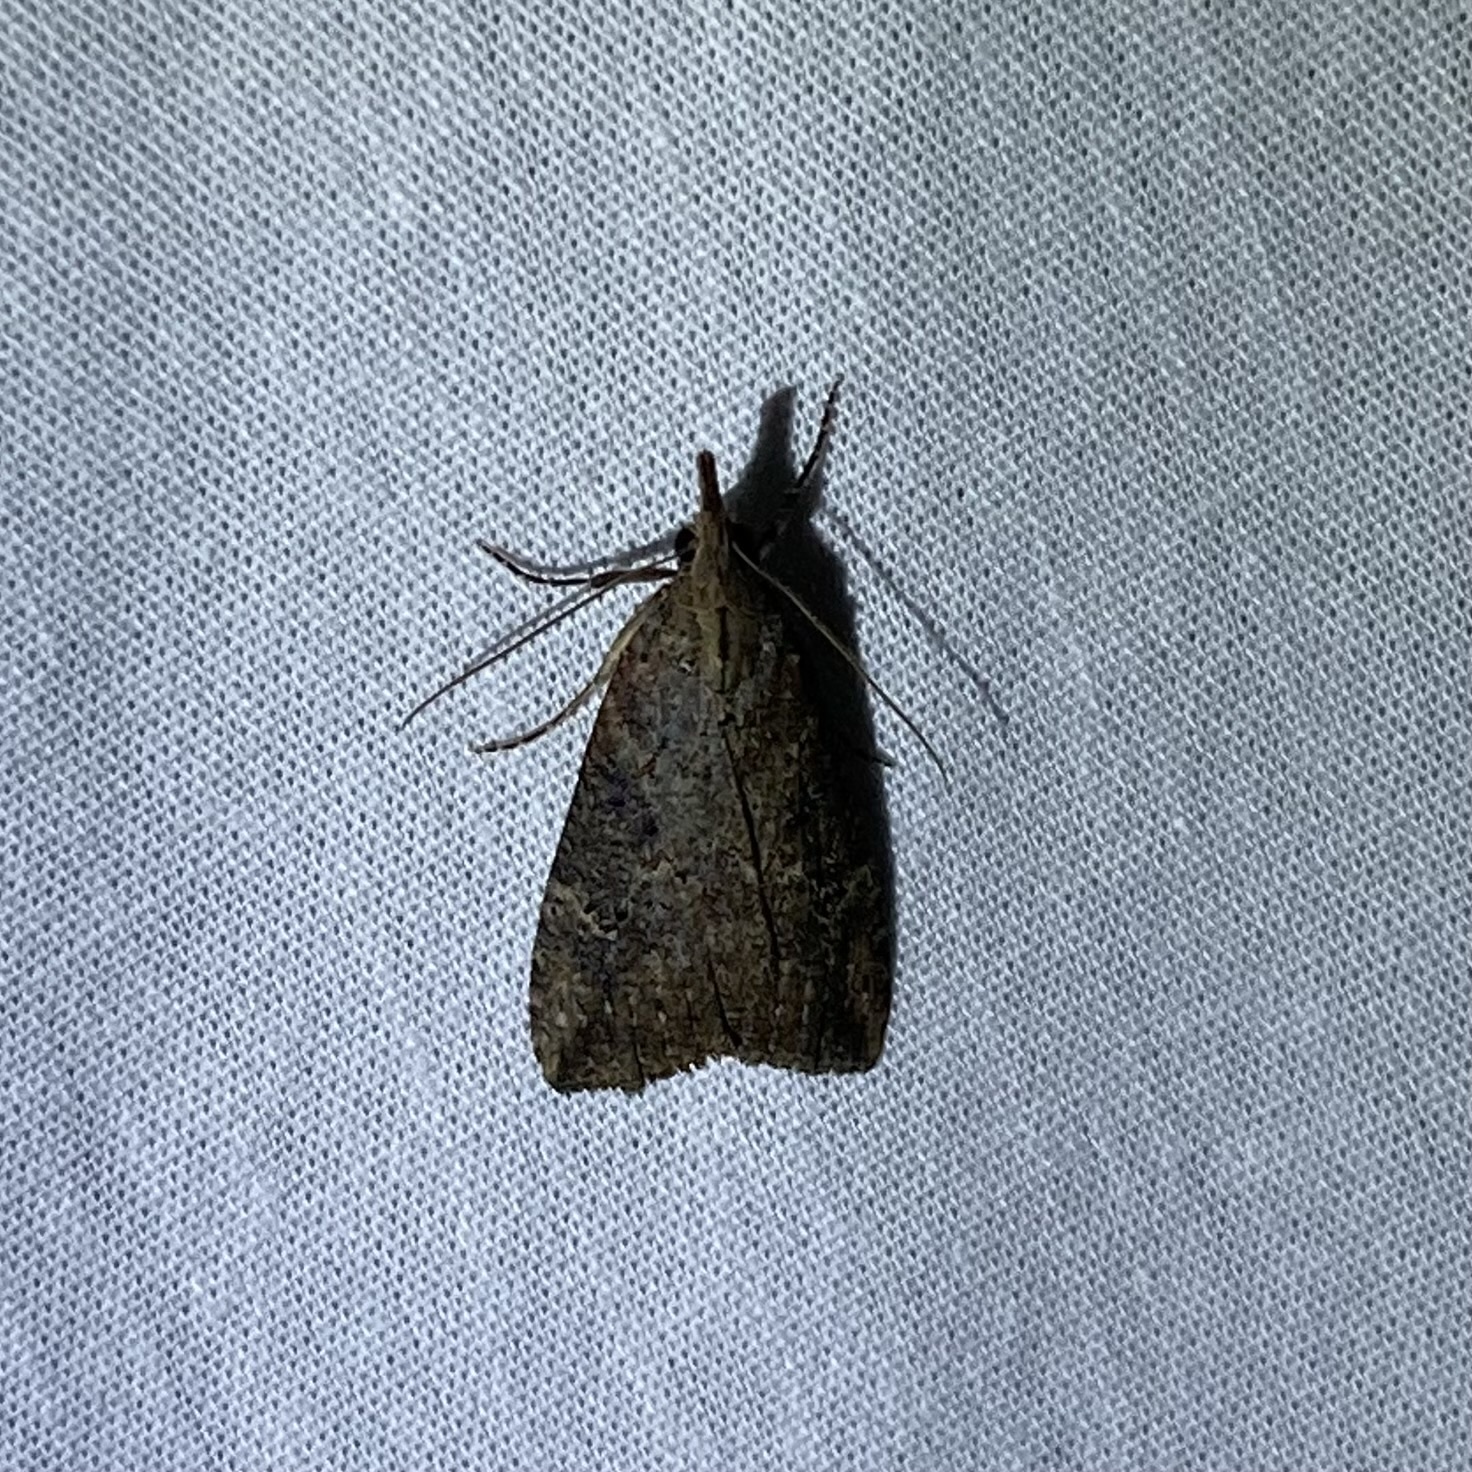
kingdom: Animalia
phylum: Arthropoda
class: Insecta
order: Lepidoptera
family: Erebidae
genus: Hypena
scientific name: Hypena humuli
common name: Hop vine snout
